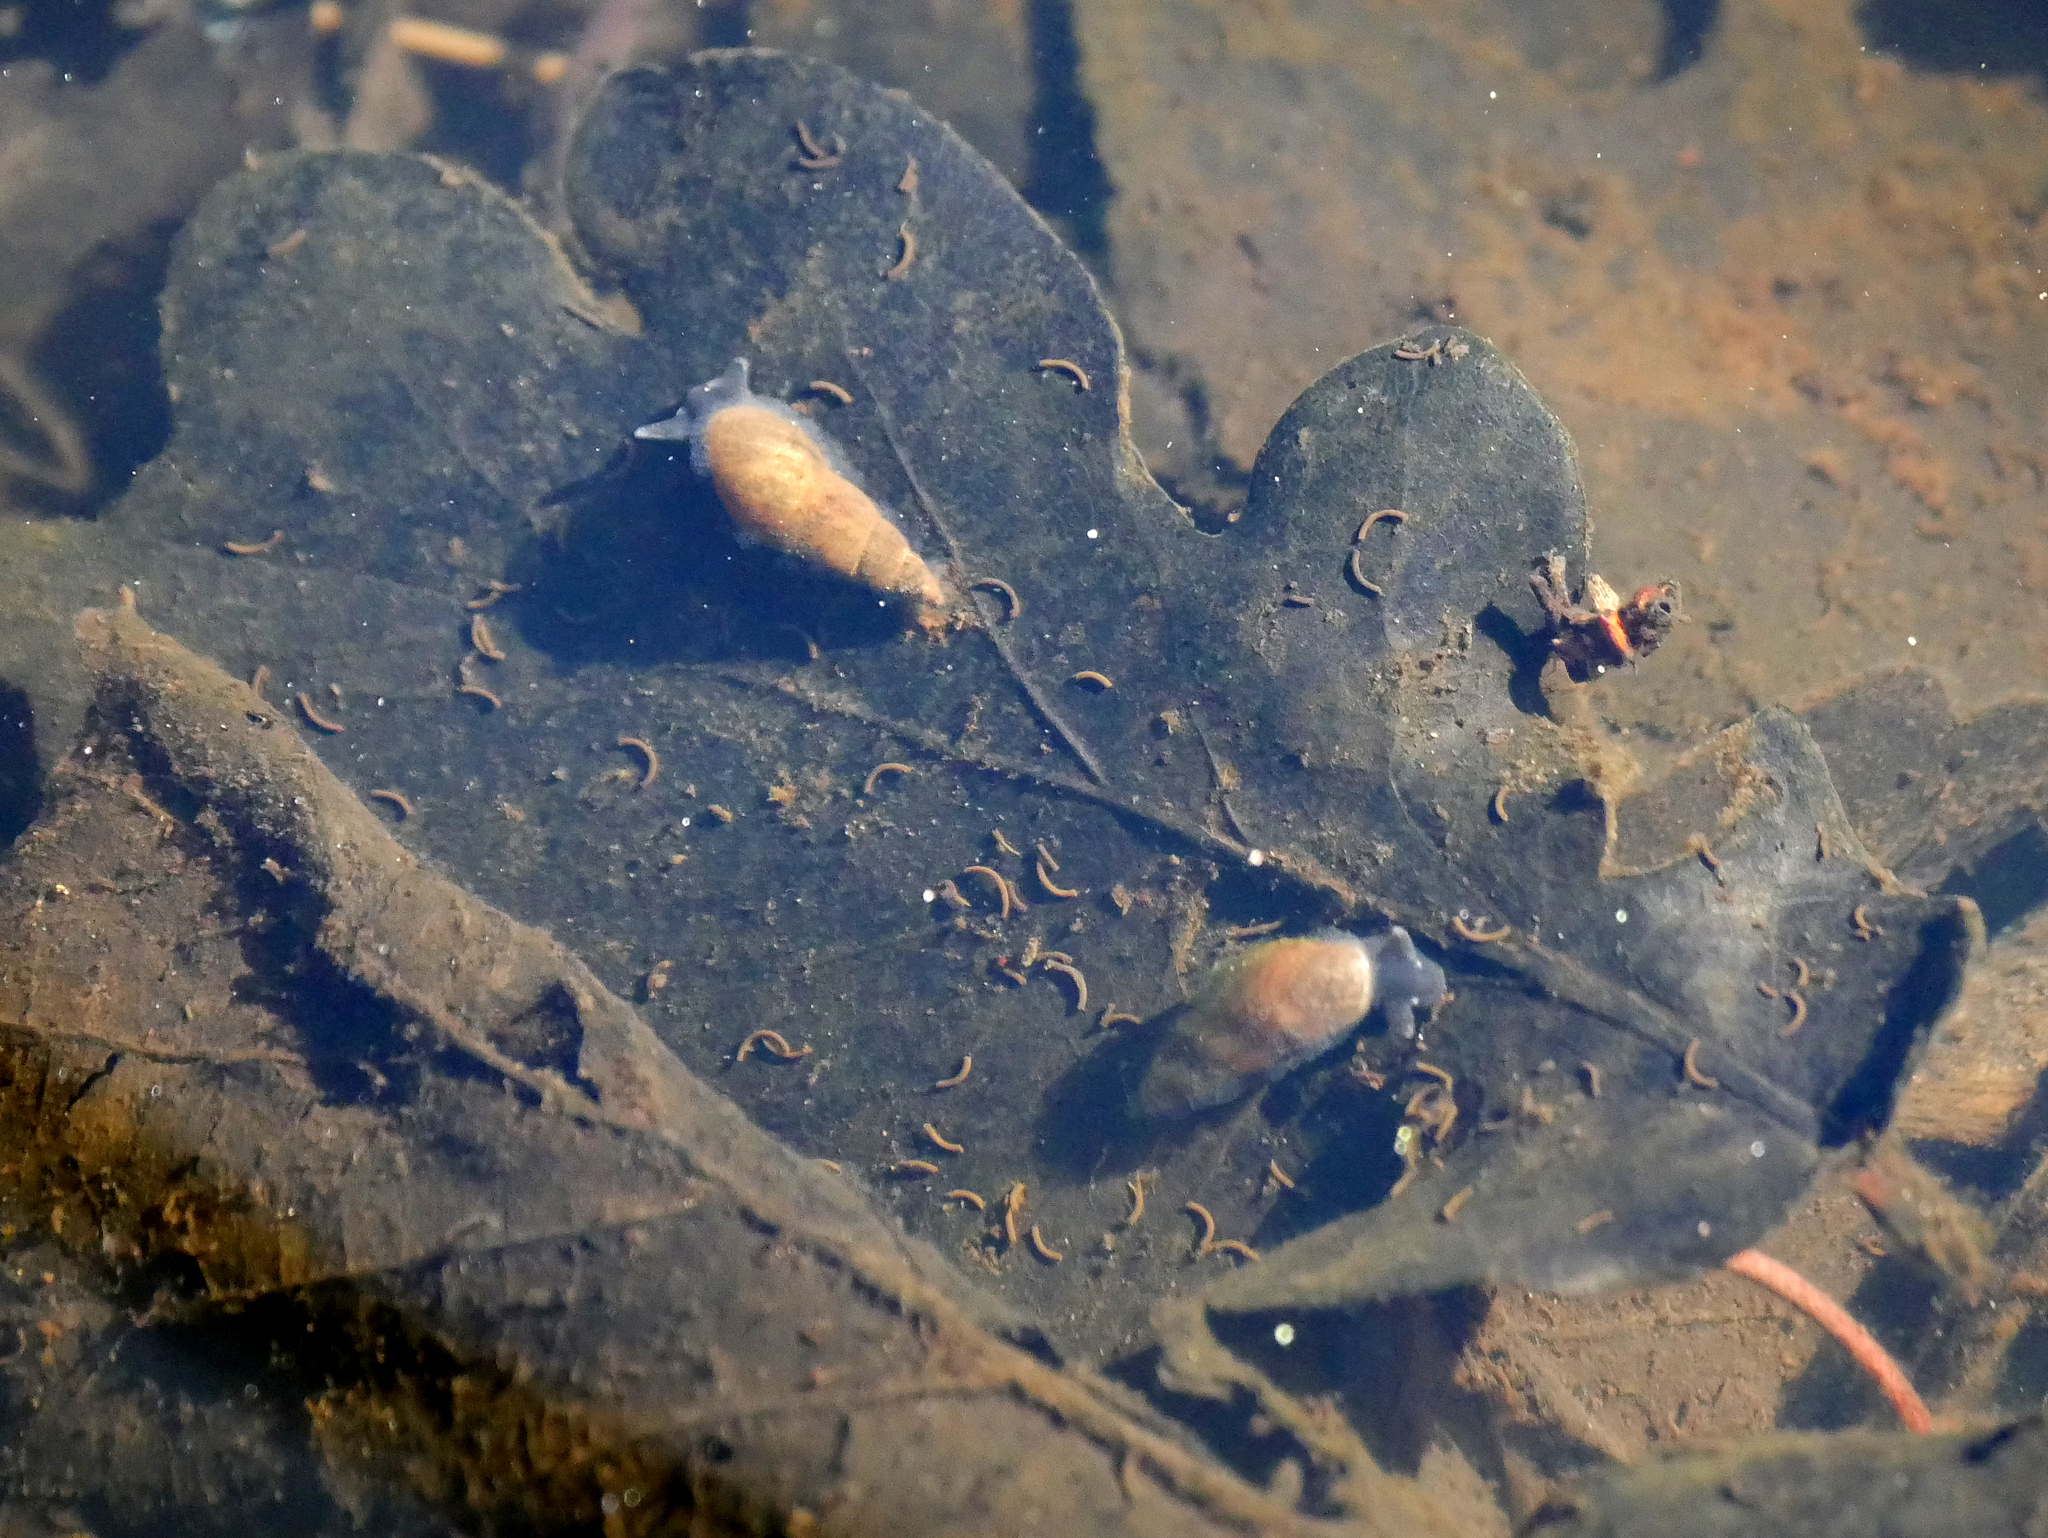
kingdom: Animalia
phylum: Mollusca
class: Gastropoda
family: Lymnaeidae
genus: Omphiscola
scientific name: Omphiscola glabra
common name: Mud snail
